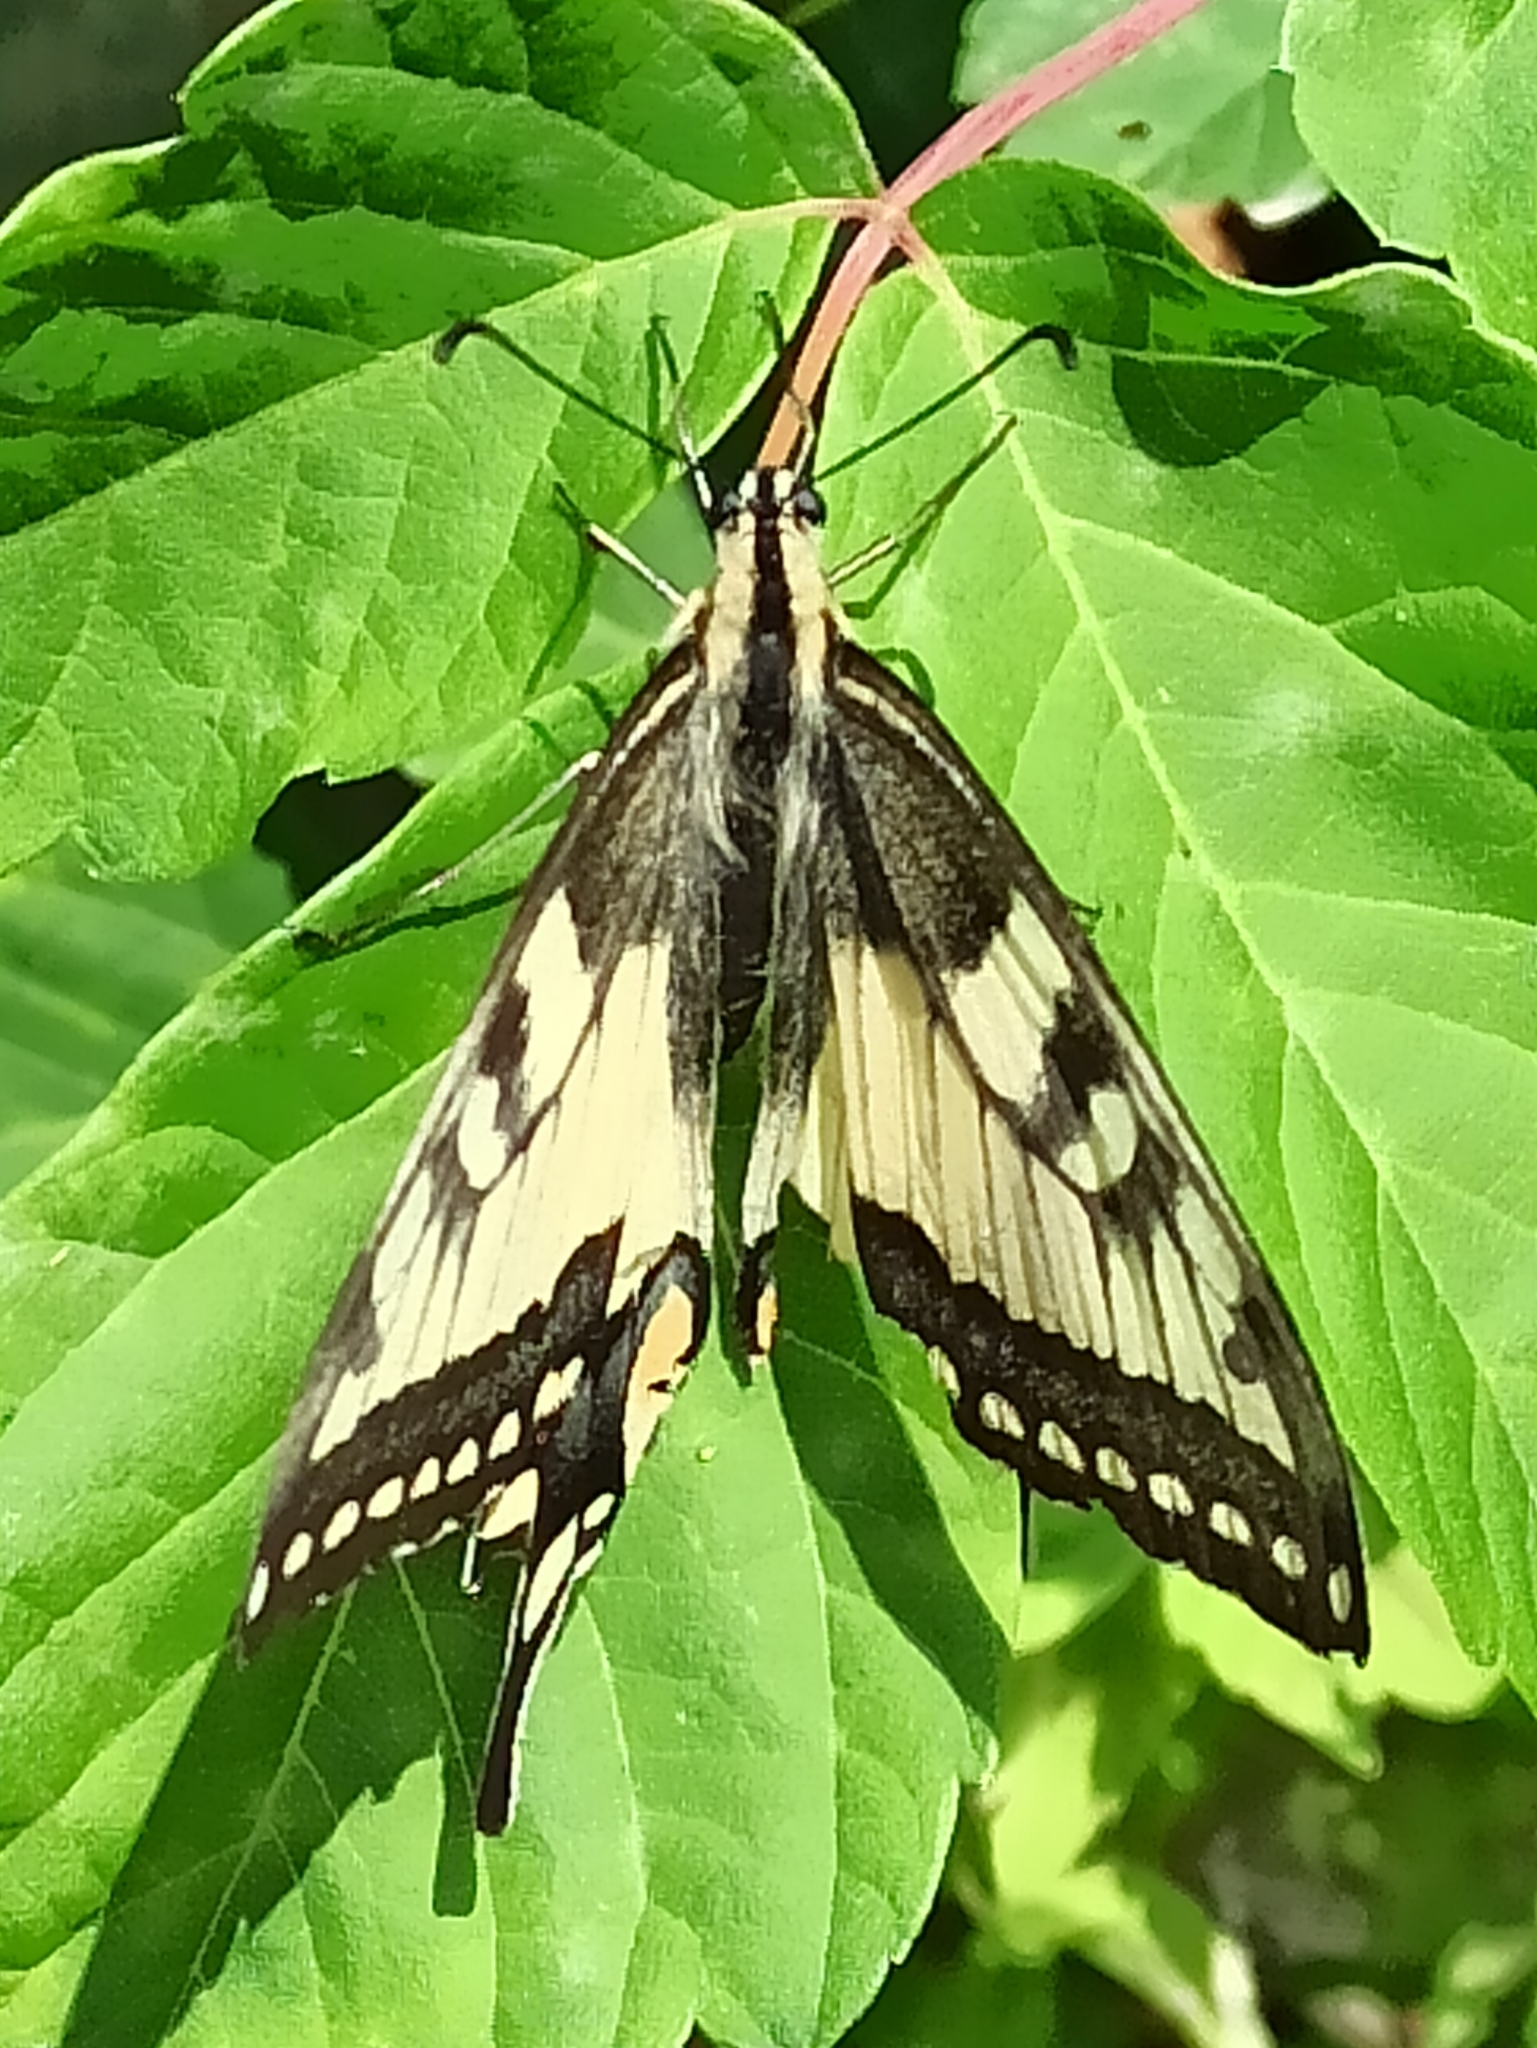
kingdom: Animalia
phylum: Arthropoda
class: Insecta
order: Lepidoptera
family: Papilionidae
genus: Papilio
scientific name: Papilio machaon
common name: Swallowtail
